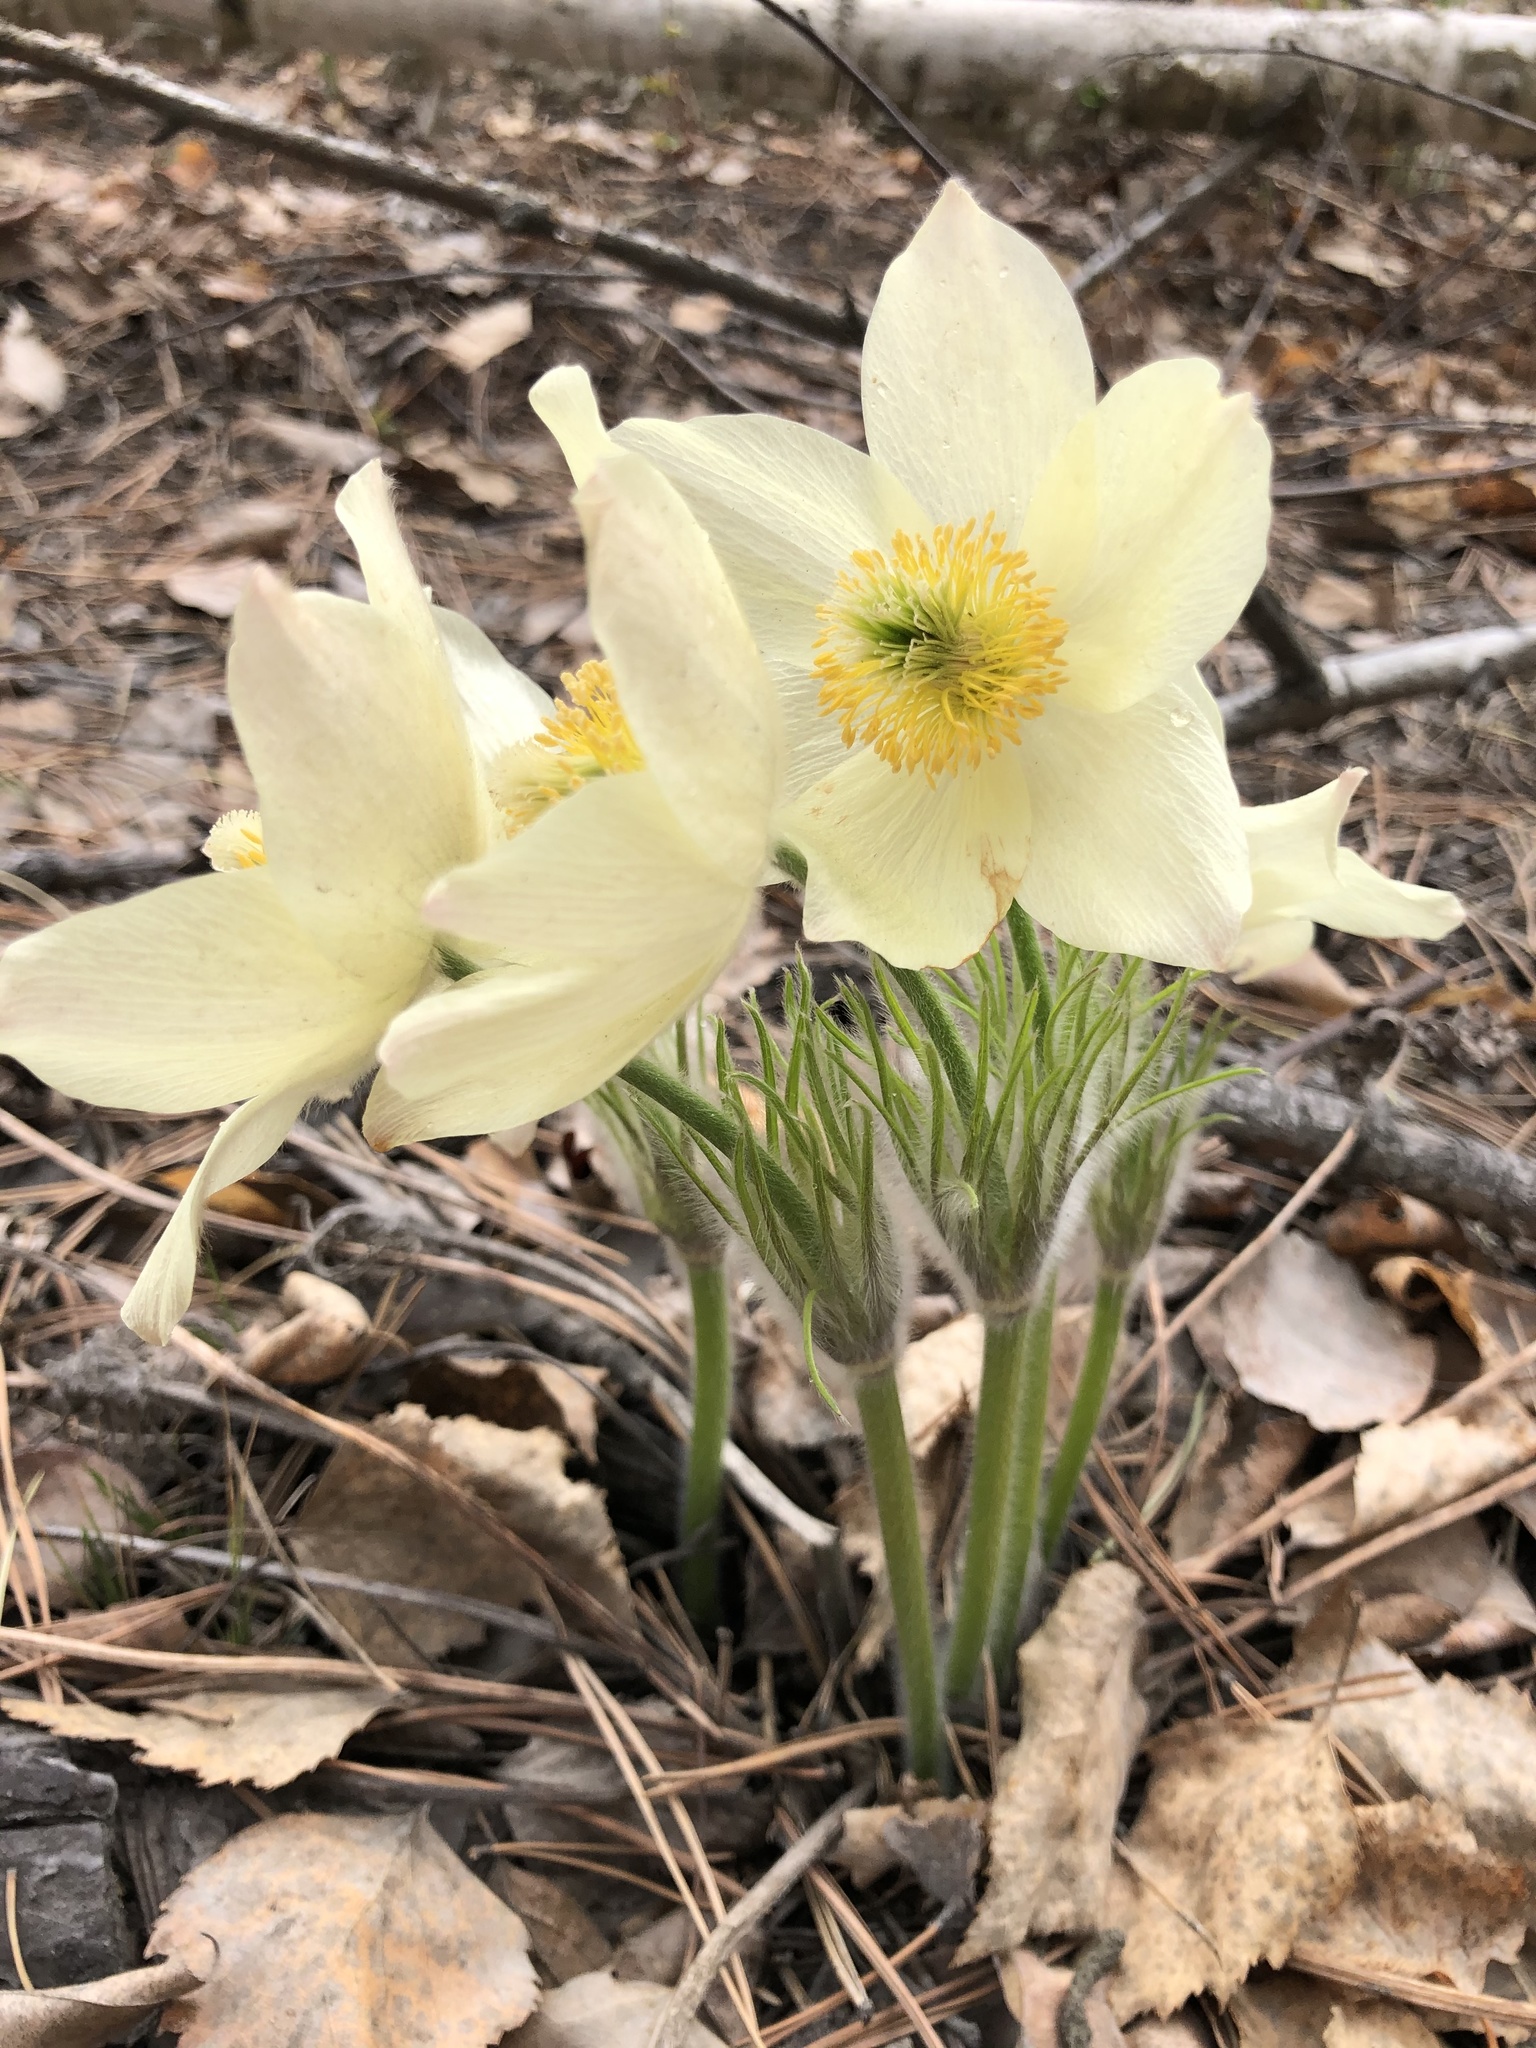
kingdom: Plantae
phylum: Tracheophyta
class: Magnoliopsida
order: Ranunculales
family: Ranunculaceae
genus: Pulsatilla
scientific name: Pulsatilla patens
